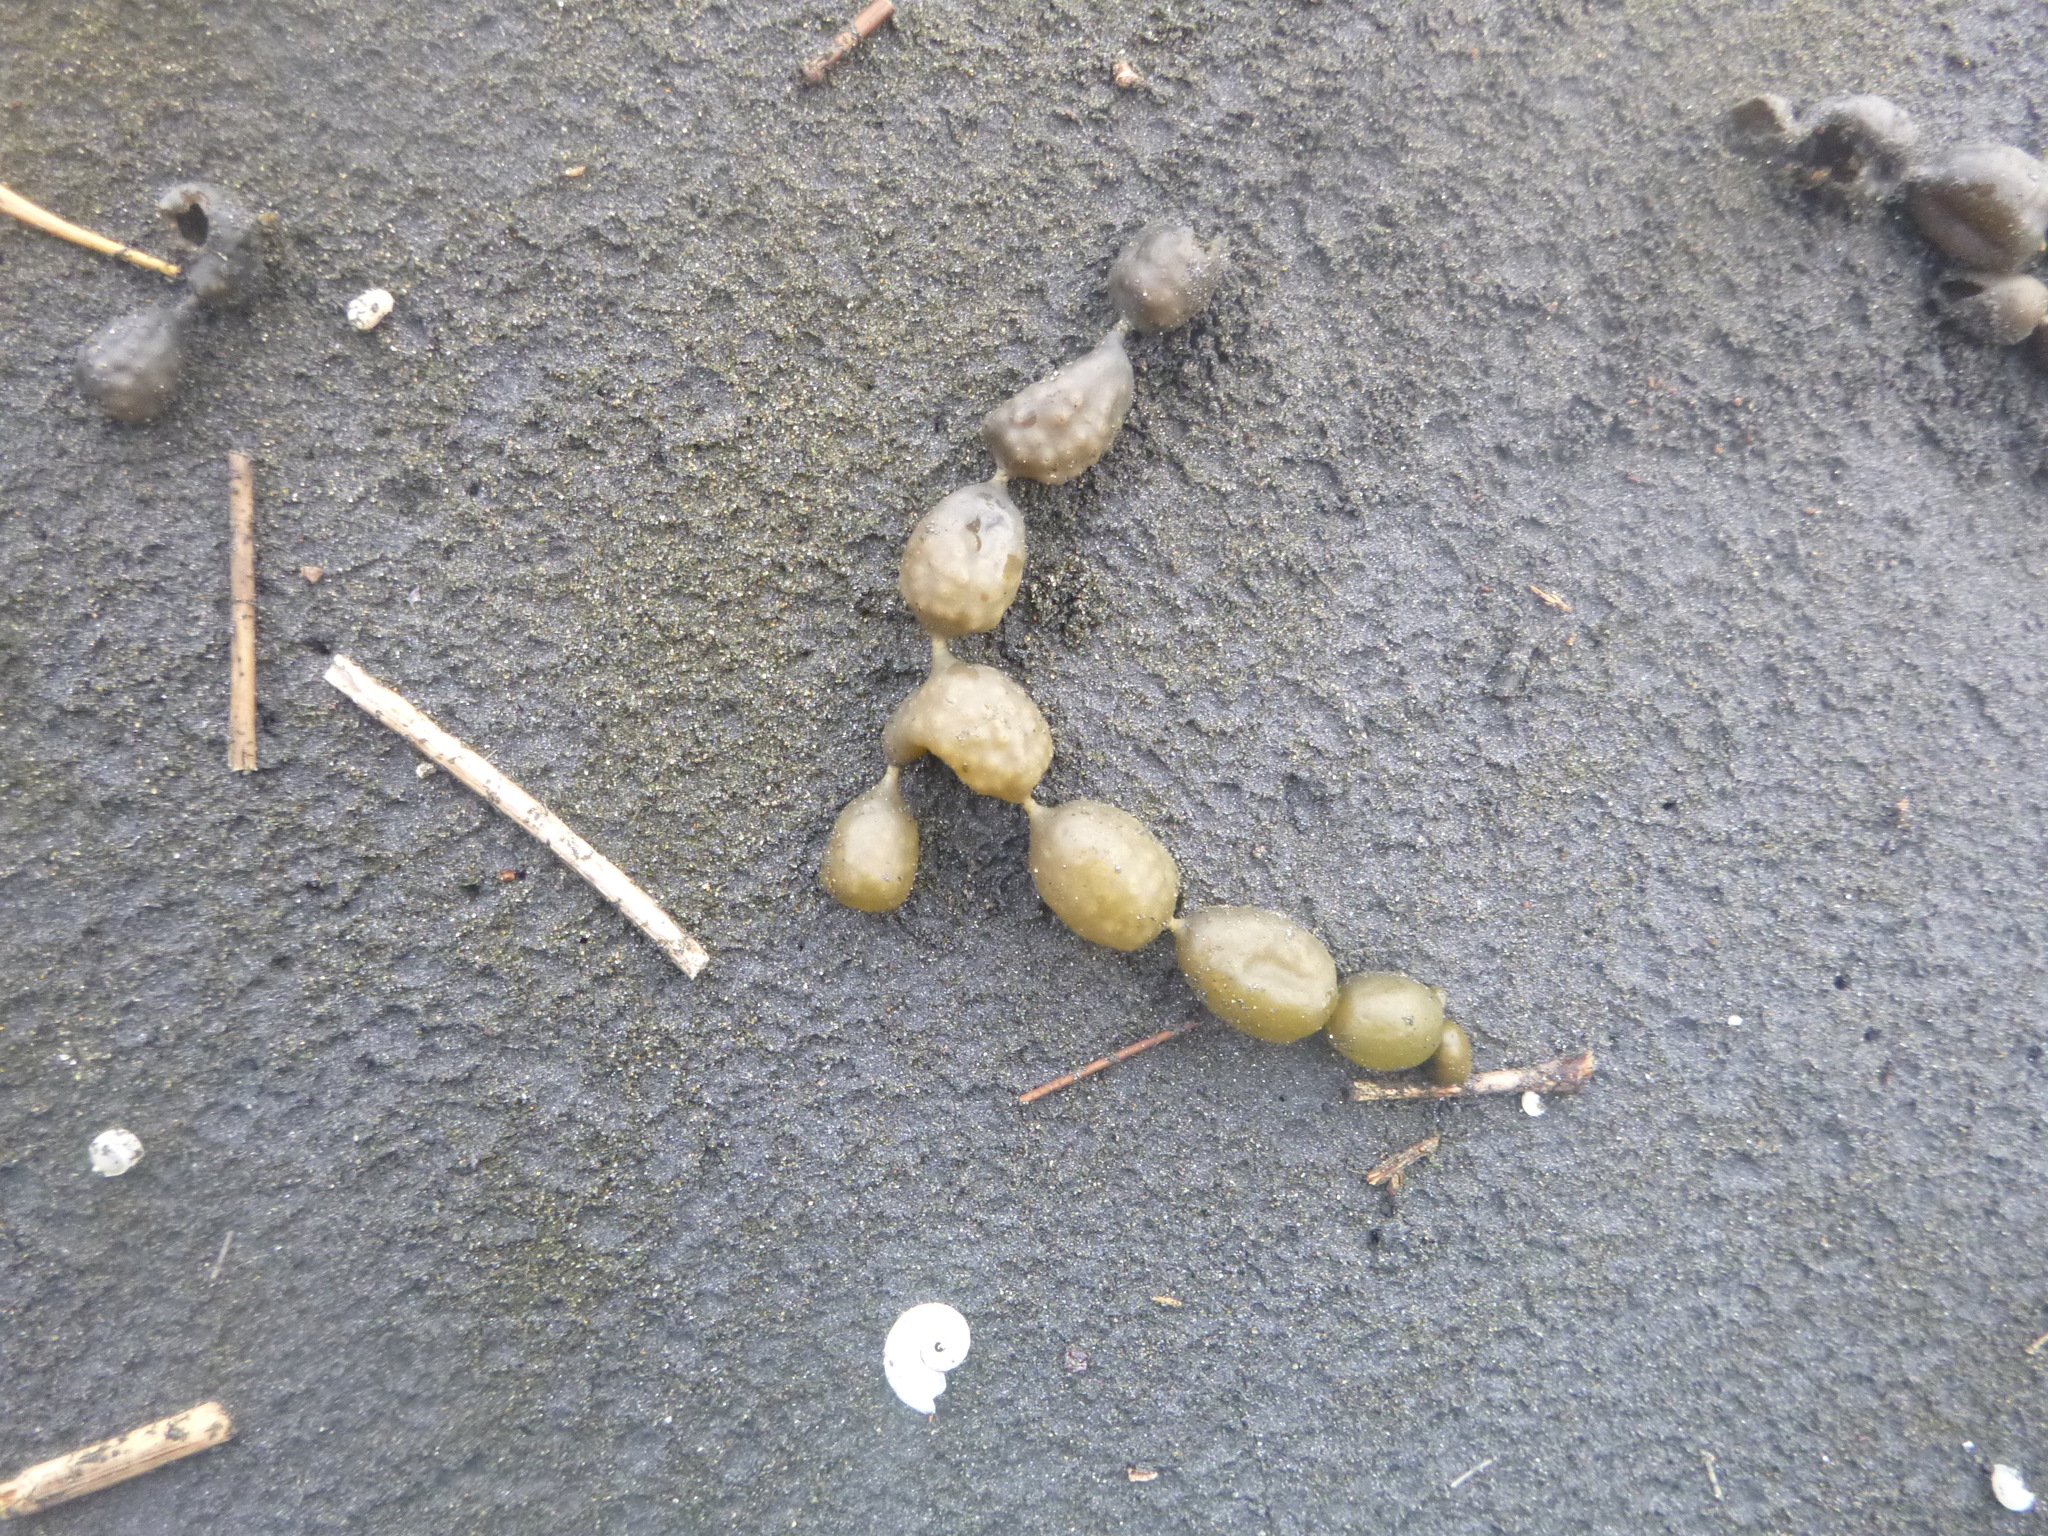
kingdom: Chromista
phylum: Ochrophyta
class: Phaeophyceae
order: Fucales
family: Hormosiraceae
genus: Hormosira
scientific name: Hormosira banksii
